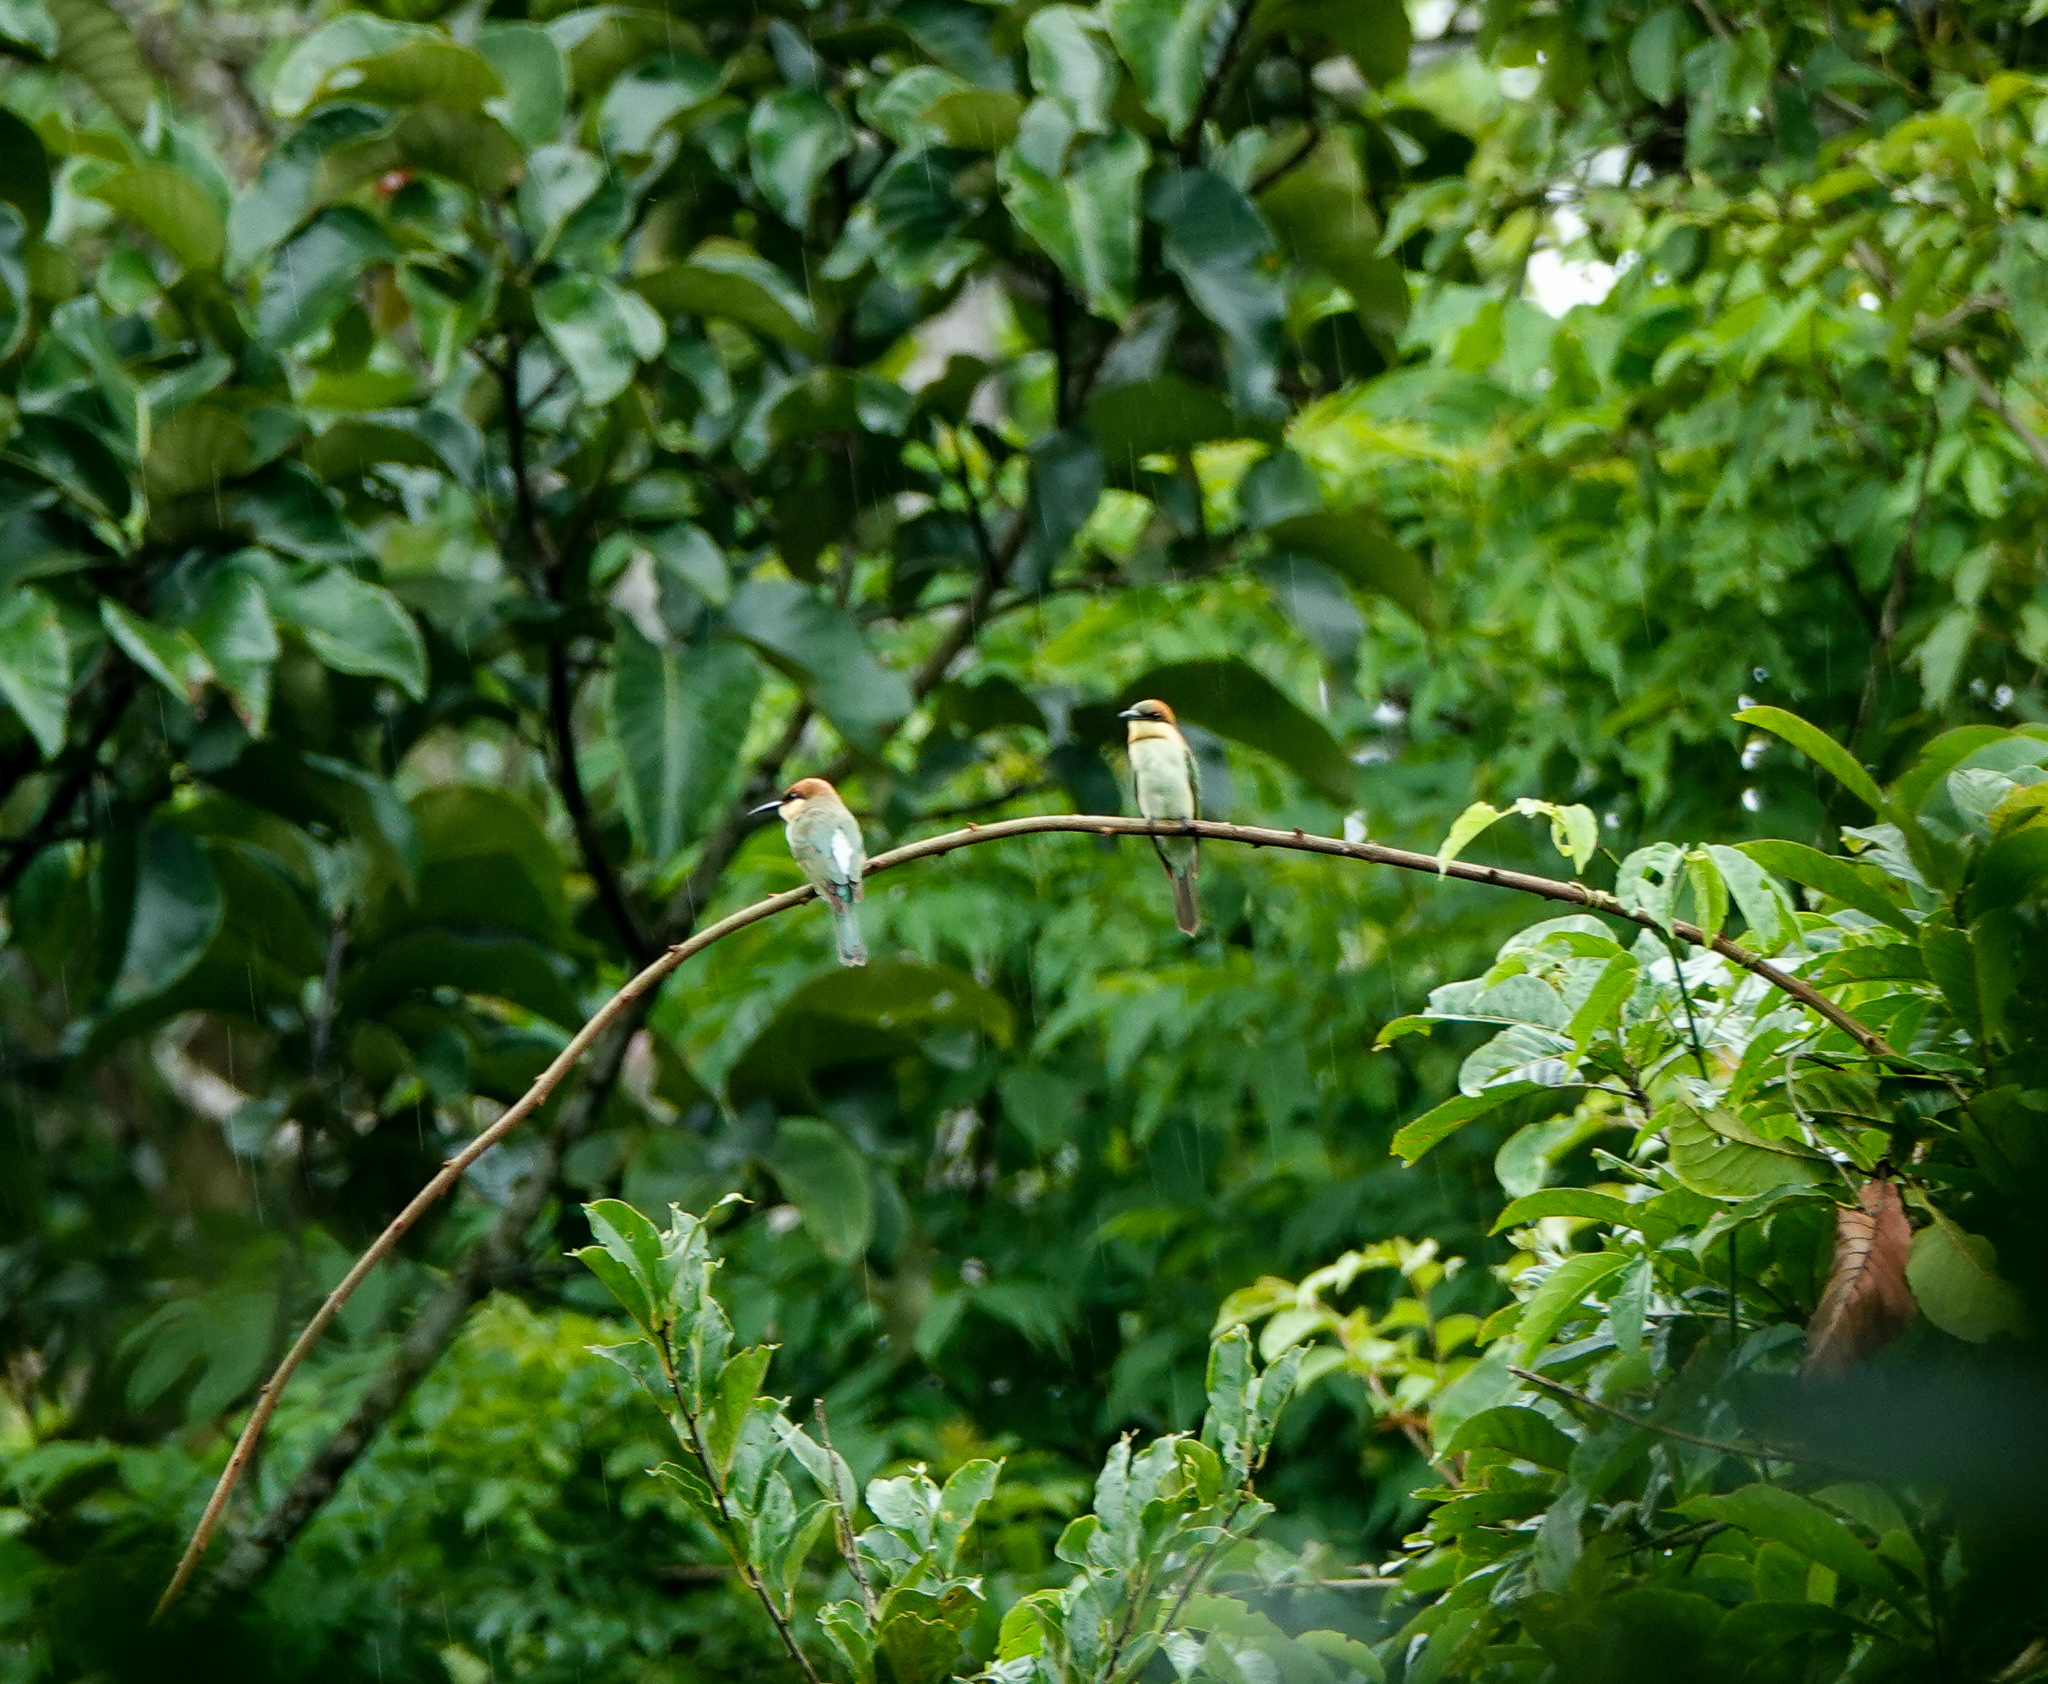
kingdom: Animalia
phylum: Chordata
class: Aves
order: Coraciiformes
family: Meropidae
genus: Merops
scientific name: Merops leschenaulti
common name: Chestnut-headed bee-eater
